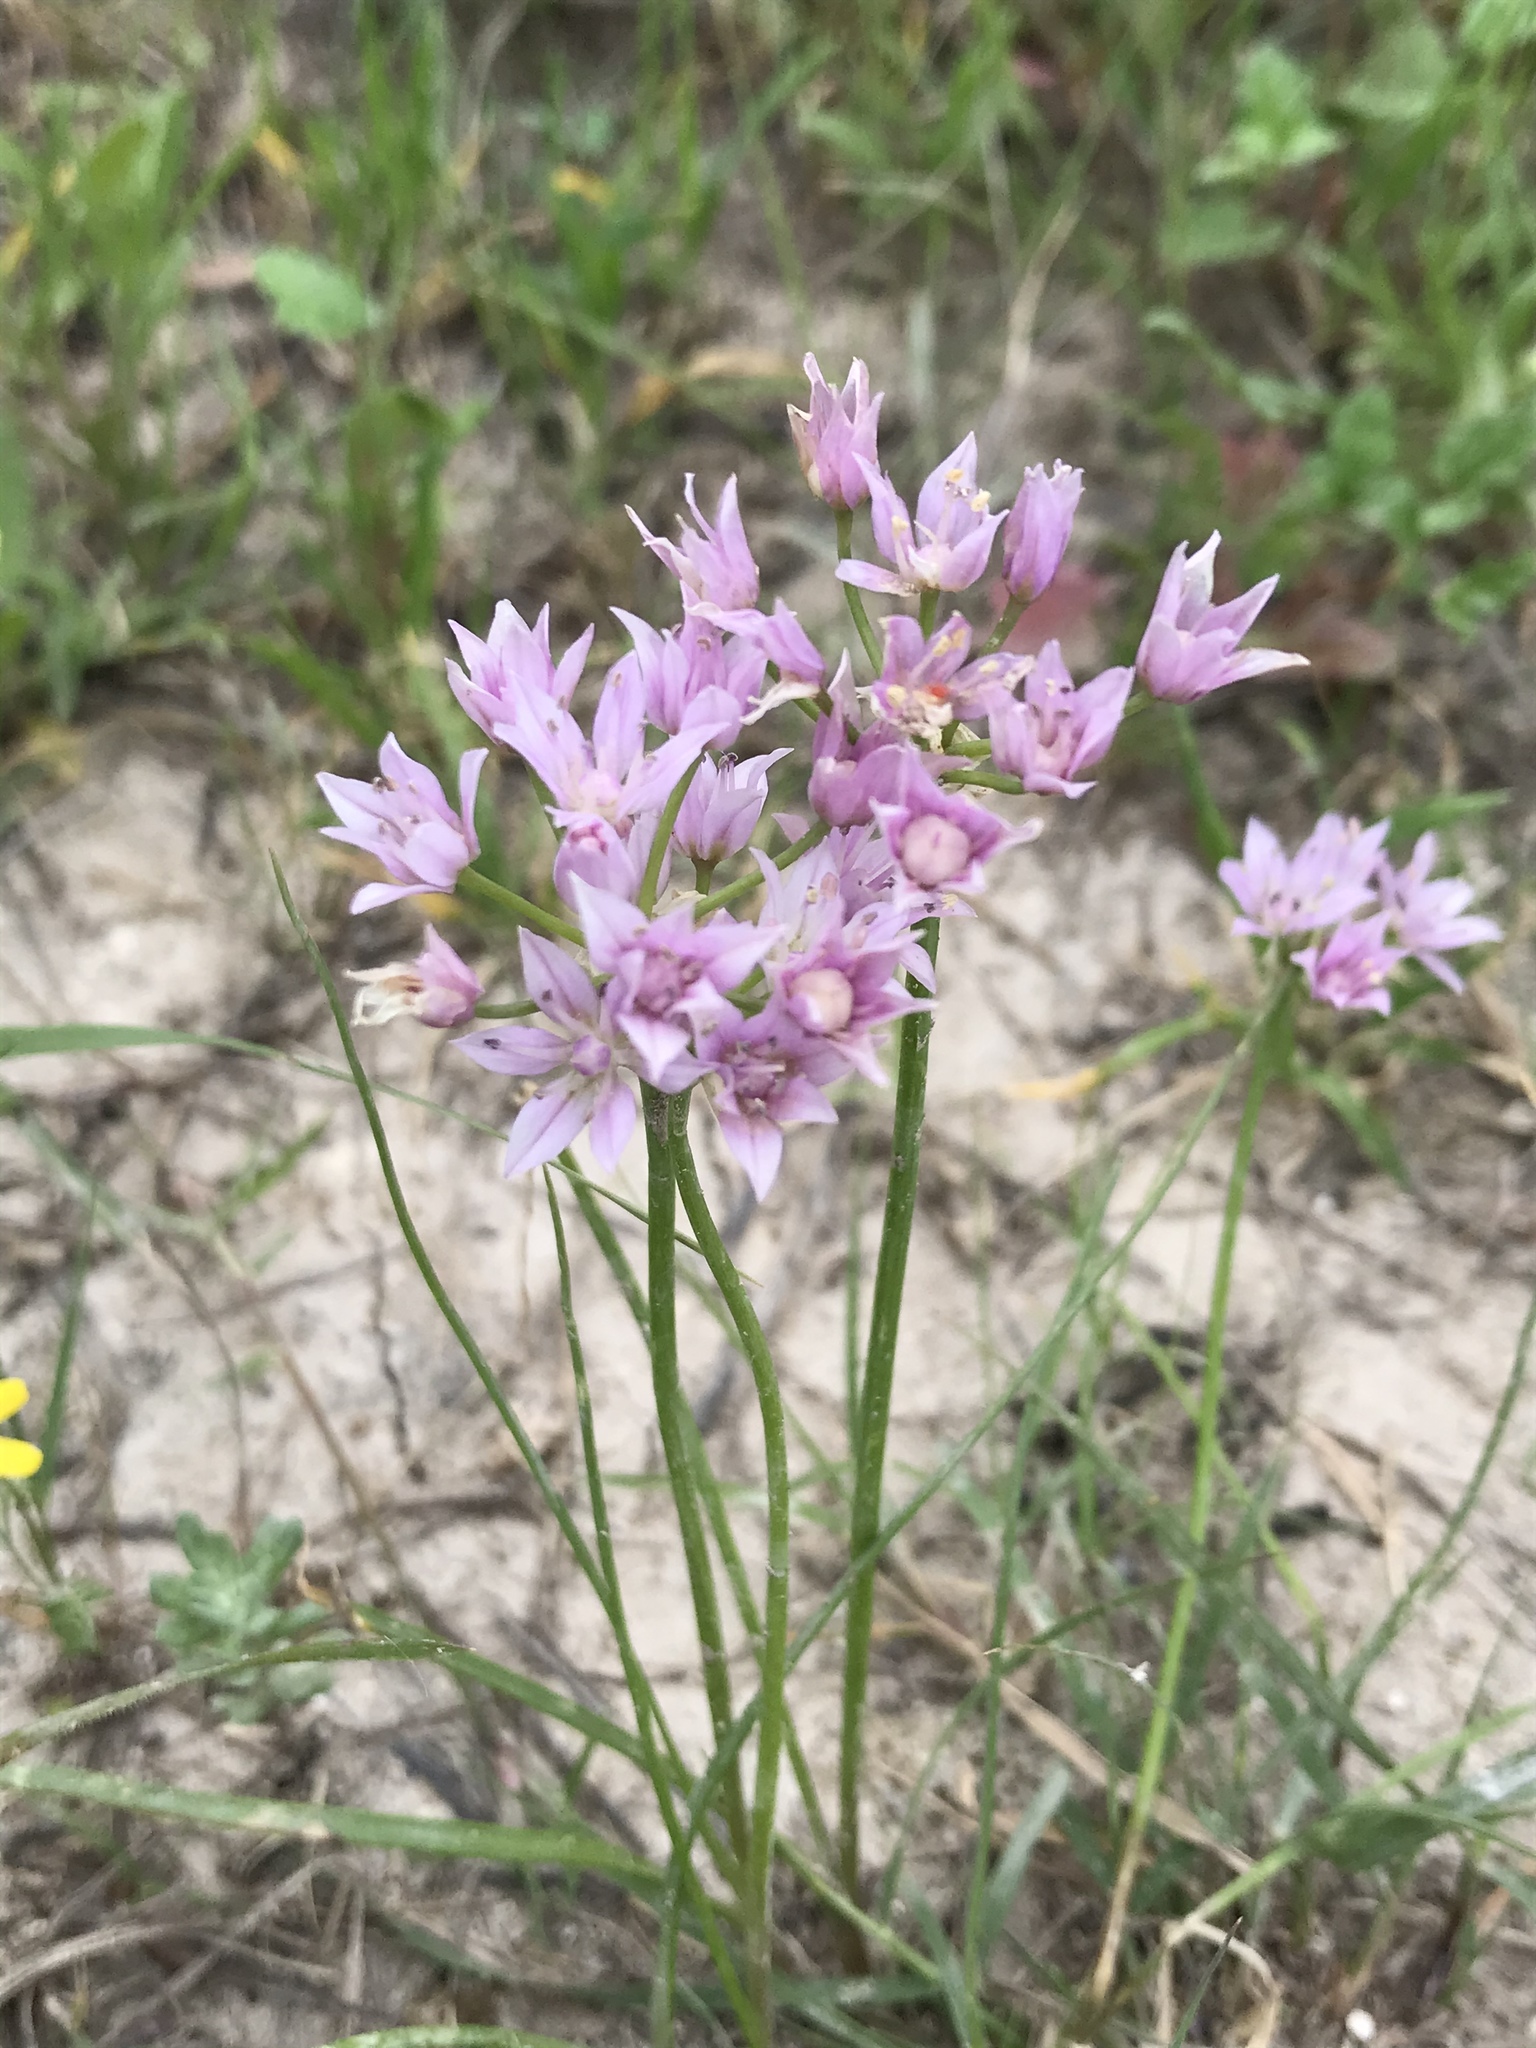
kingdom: Plantae
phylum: Tracheophyta
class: Liliopsida
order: Asparagales
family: Amaryllidaceae
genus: Allium
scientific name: Allium drummondii
